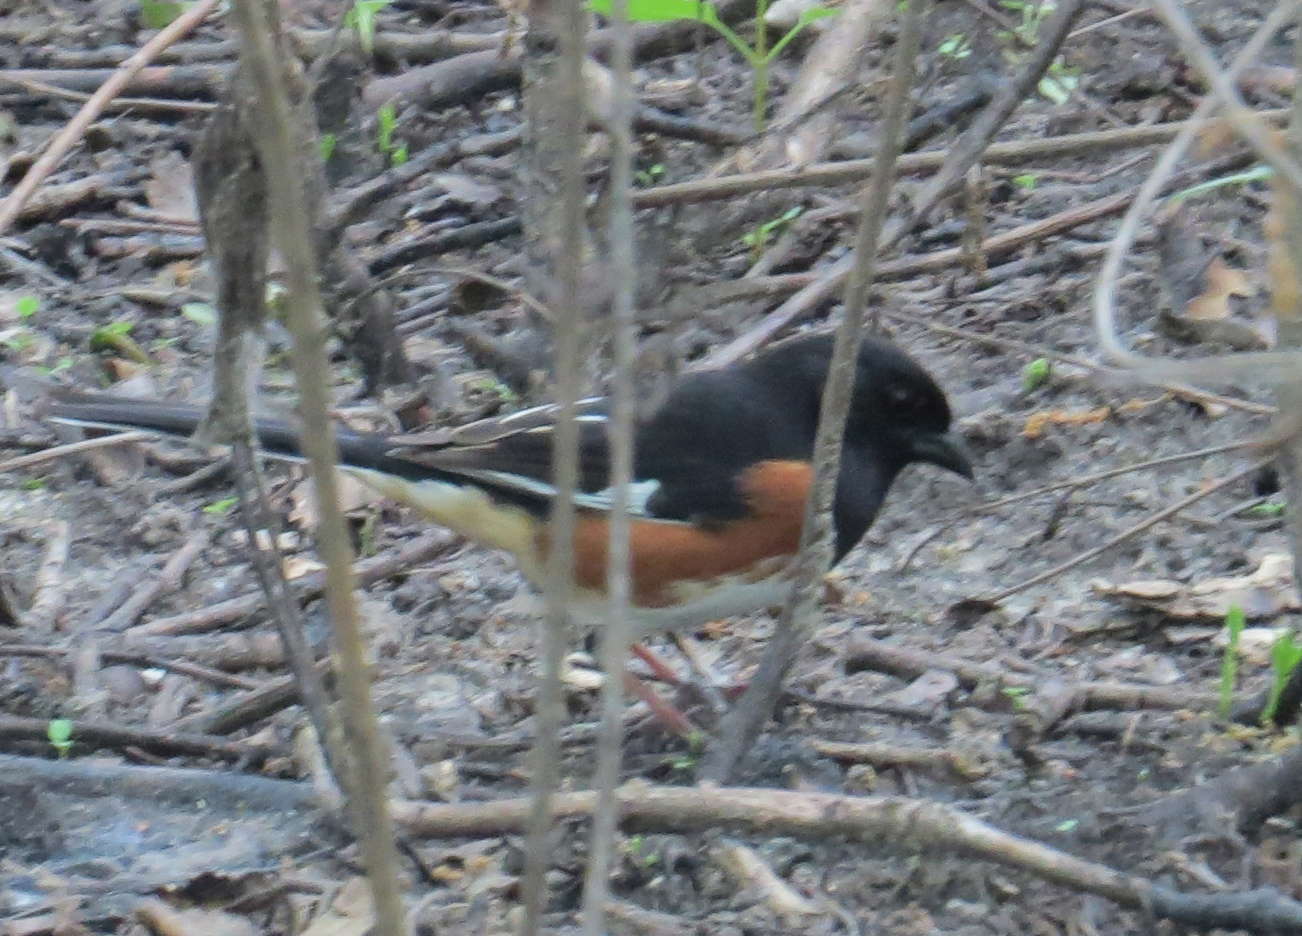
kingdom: Animalia
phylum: Chordata
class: Aves
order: Passeriformes
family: Passerellidae
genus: Pipilo
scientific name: Pipilo erythrophthalmus
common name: Eastern towhee
